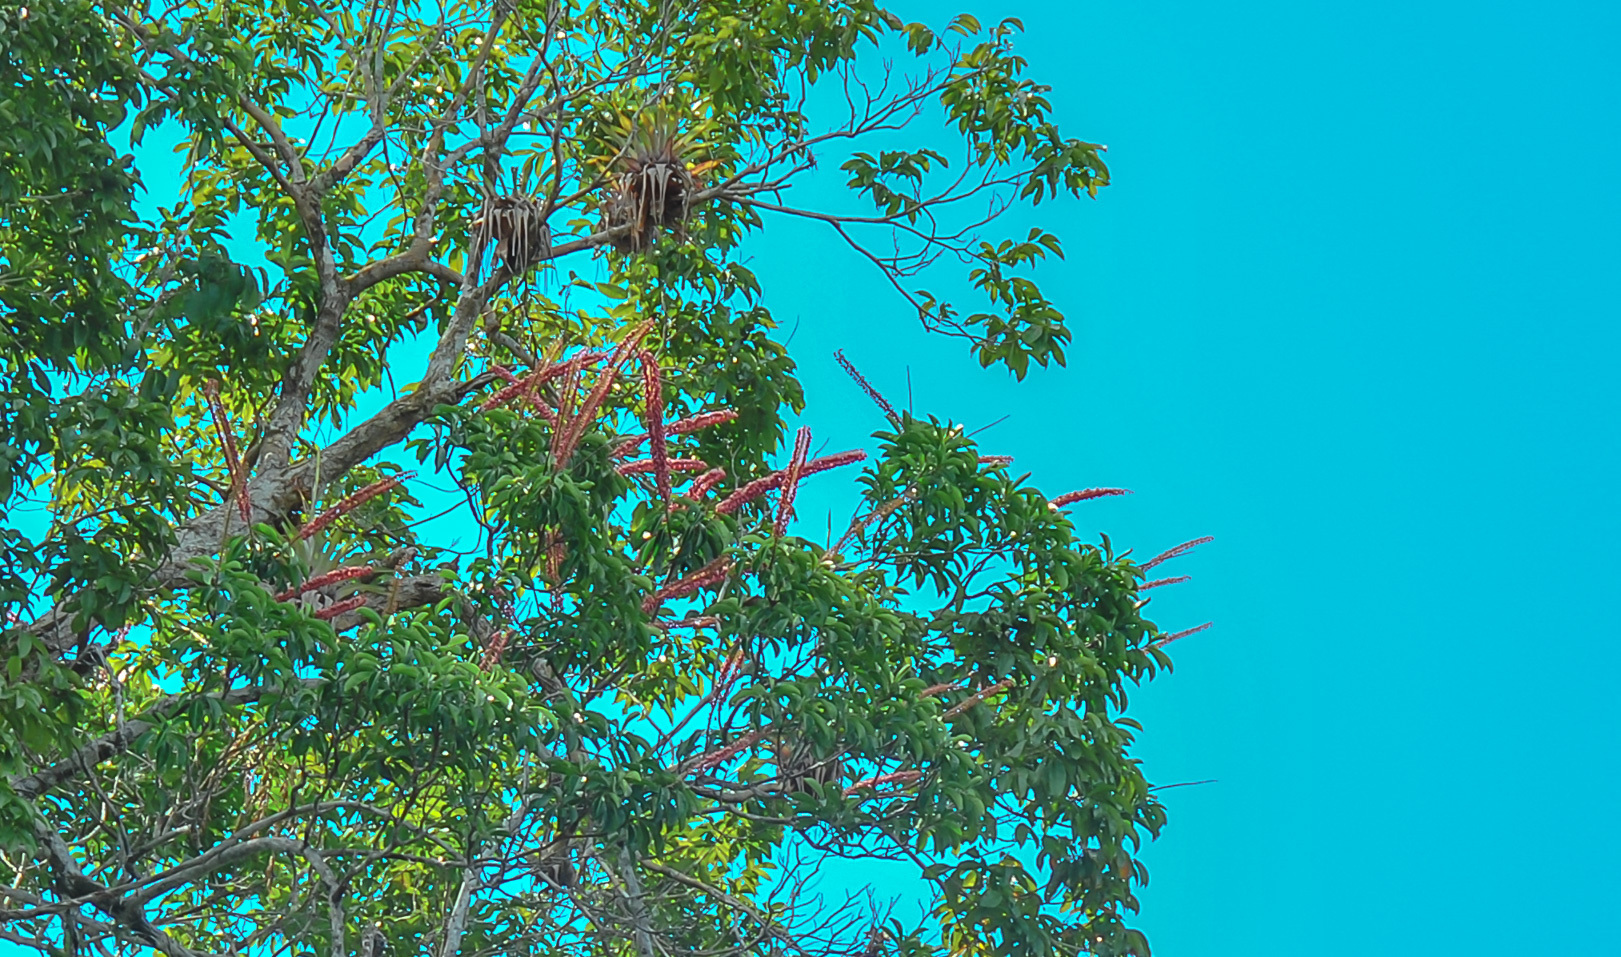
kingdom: Plantae
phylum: Tracheophyta
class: Magnoliopsida
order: Ericales
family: Marcgraviaceae
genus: Norantea
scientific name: Norantea guianensis
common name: Red hot poker vine
